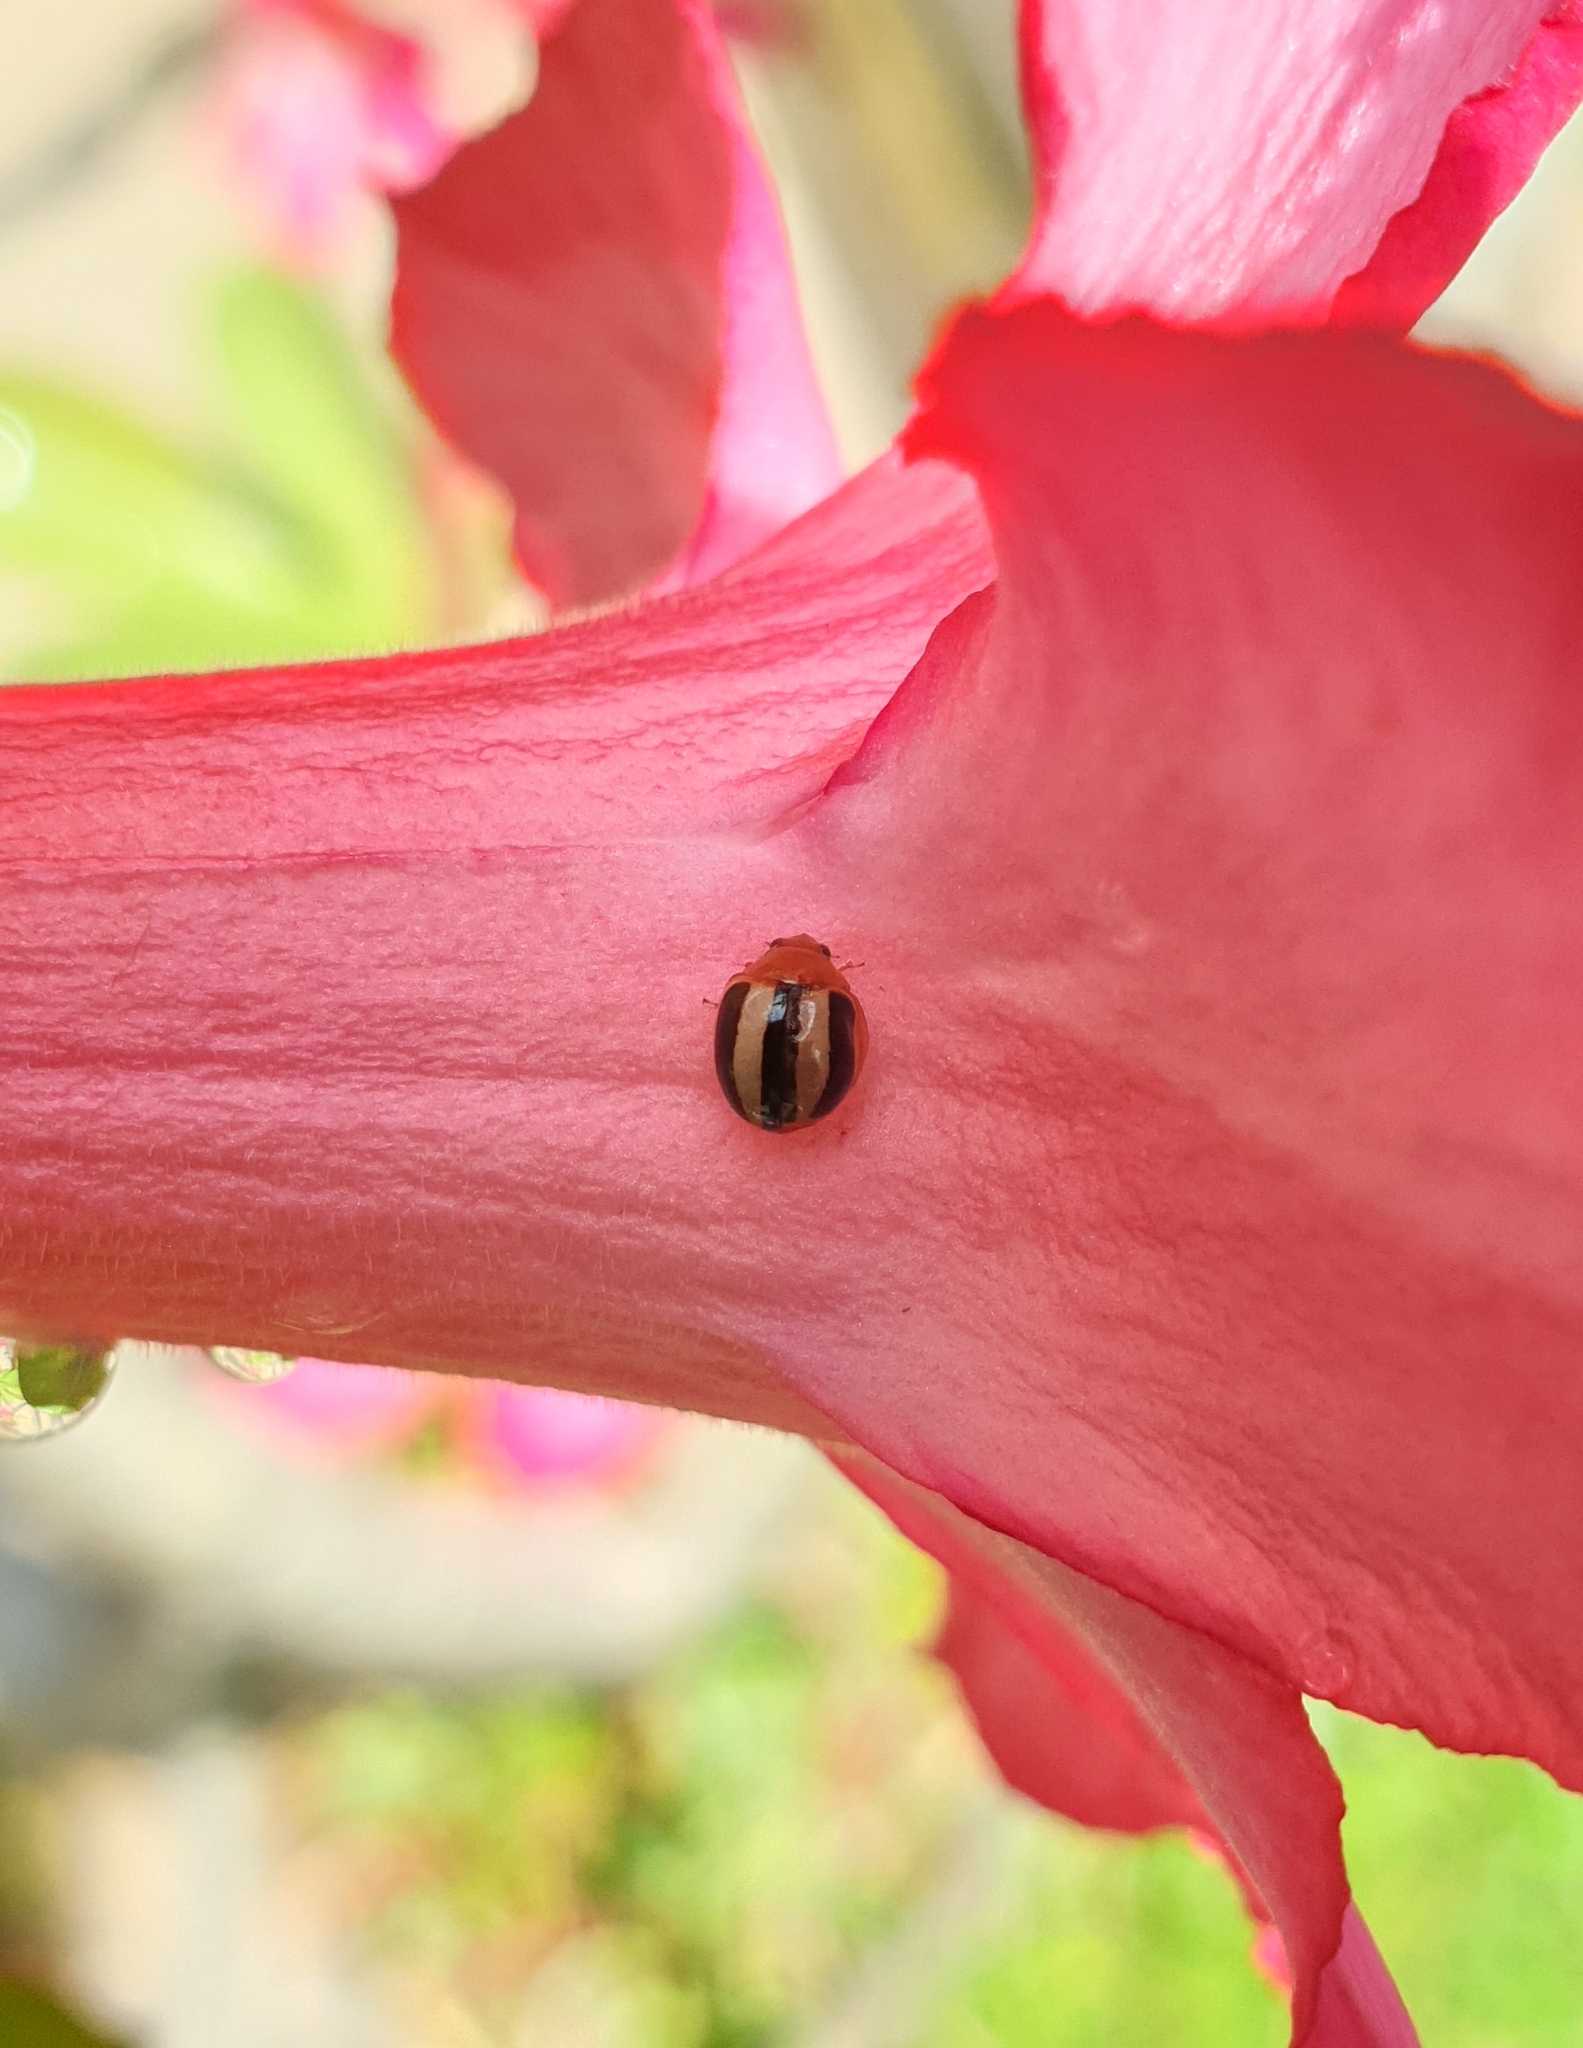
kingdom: Animalia
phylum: Arthropoda
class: Insecta
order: Coleoptera
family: Coccinellidae
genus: Brumoides
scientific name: Brumoides suturalis
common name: Threestriped lady beetle
